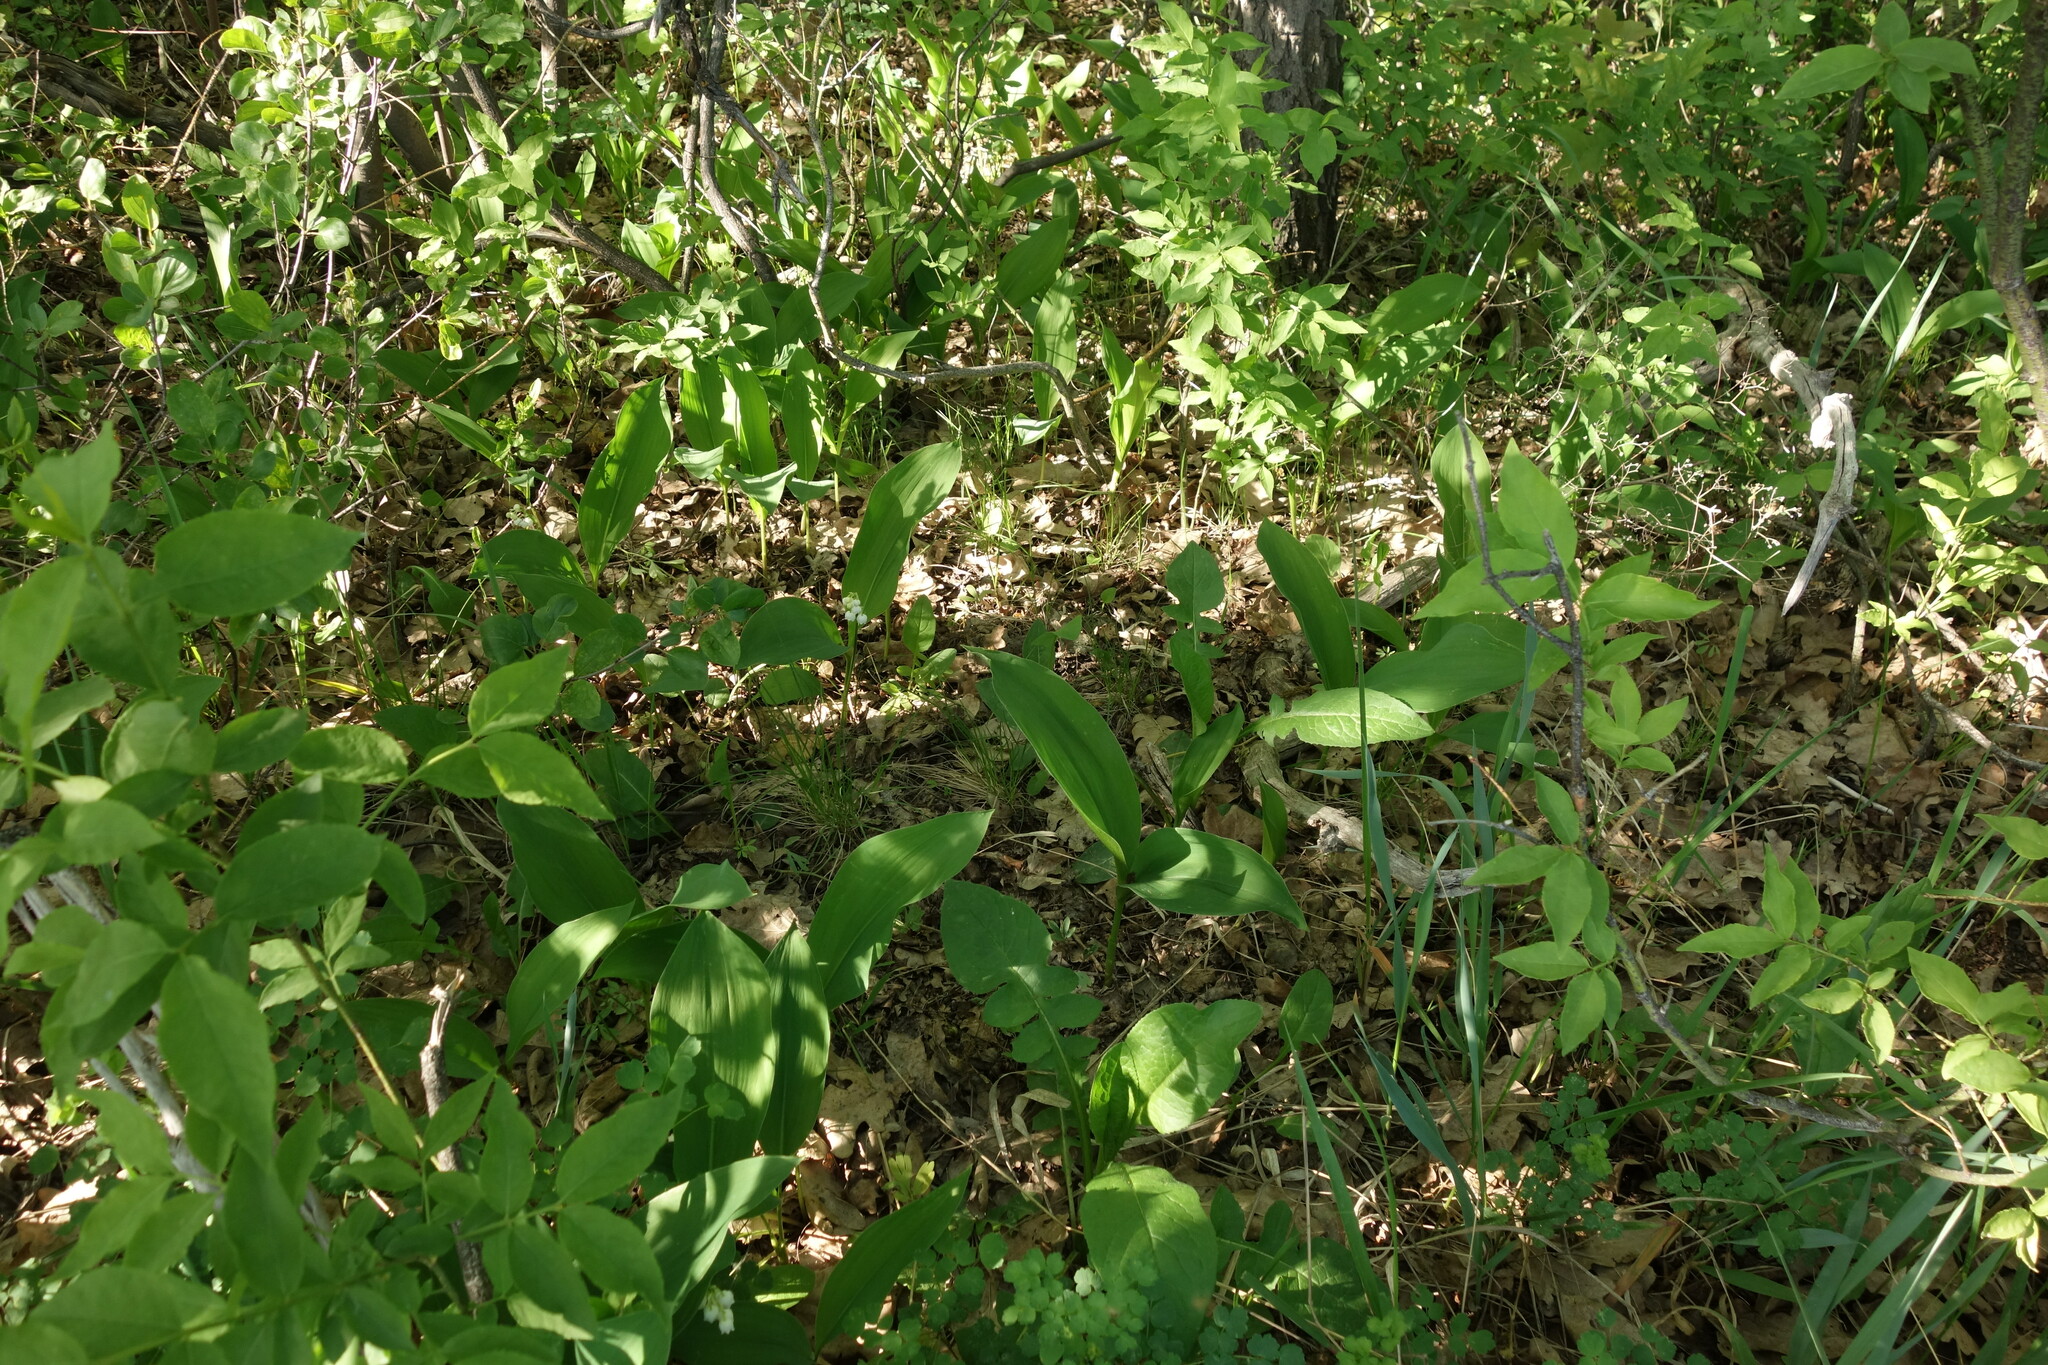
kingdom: Plantae
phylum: Tracheophyta
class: Liliopsida
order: Asparagales
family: Asparagaceae
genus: Convallaria
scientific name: Convallaria majalis
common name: Lily-of-the-valley
